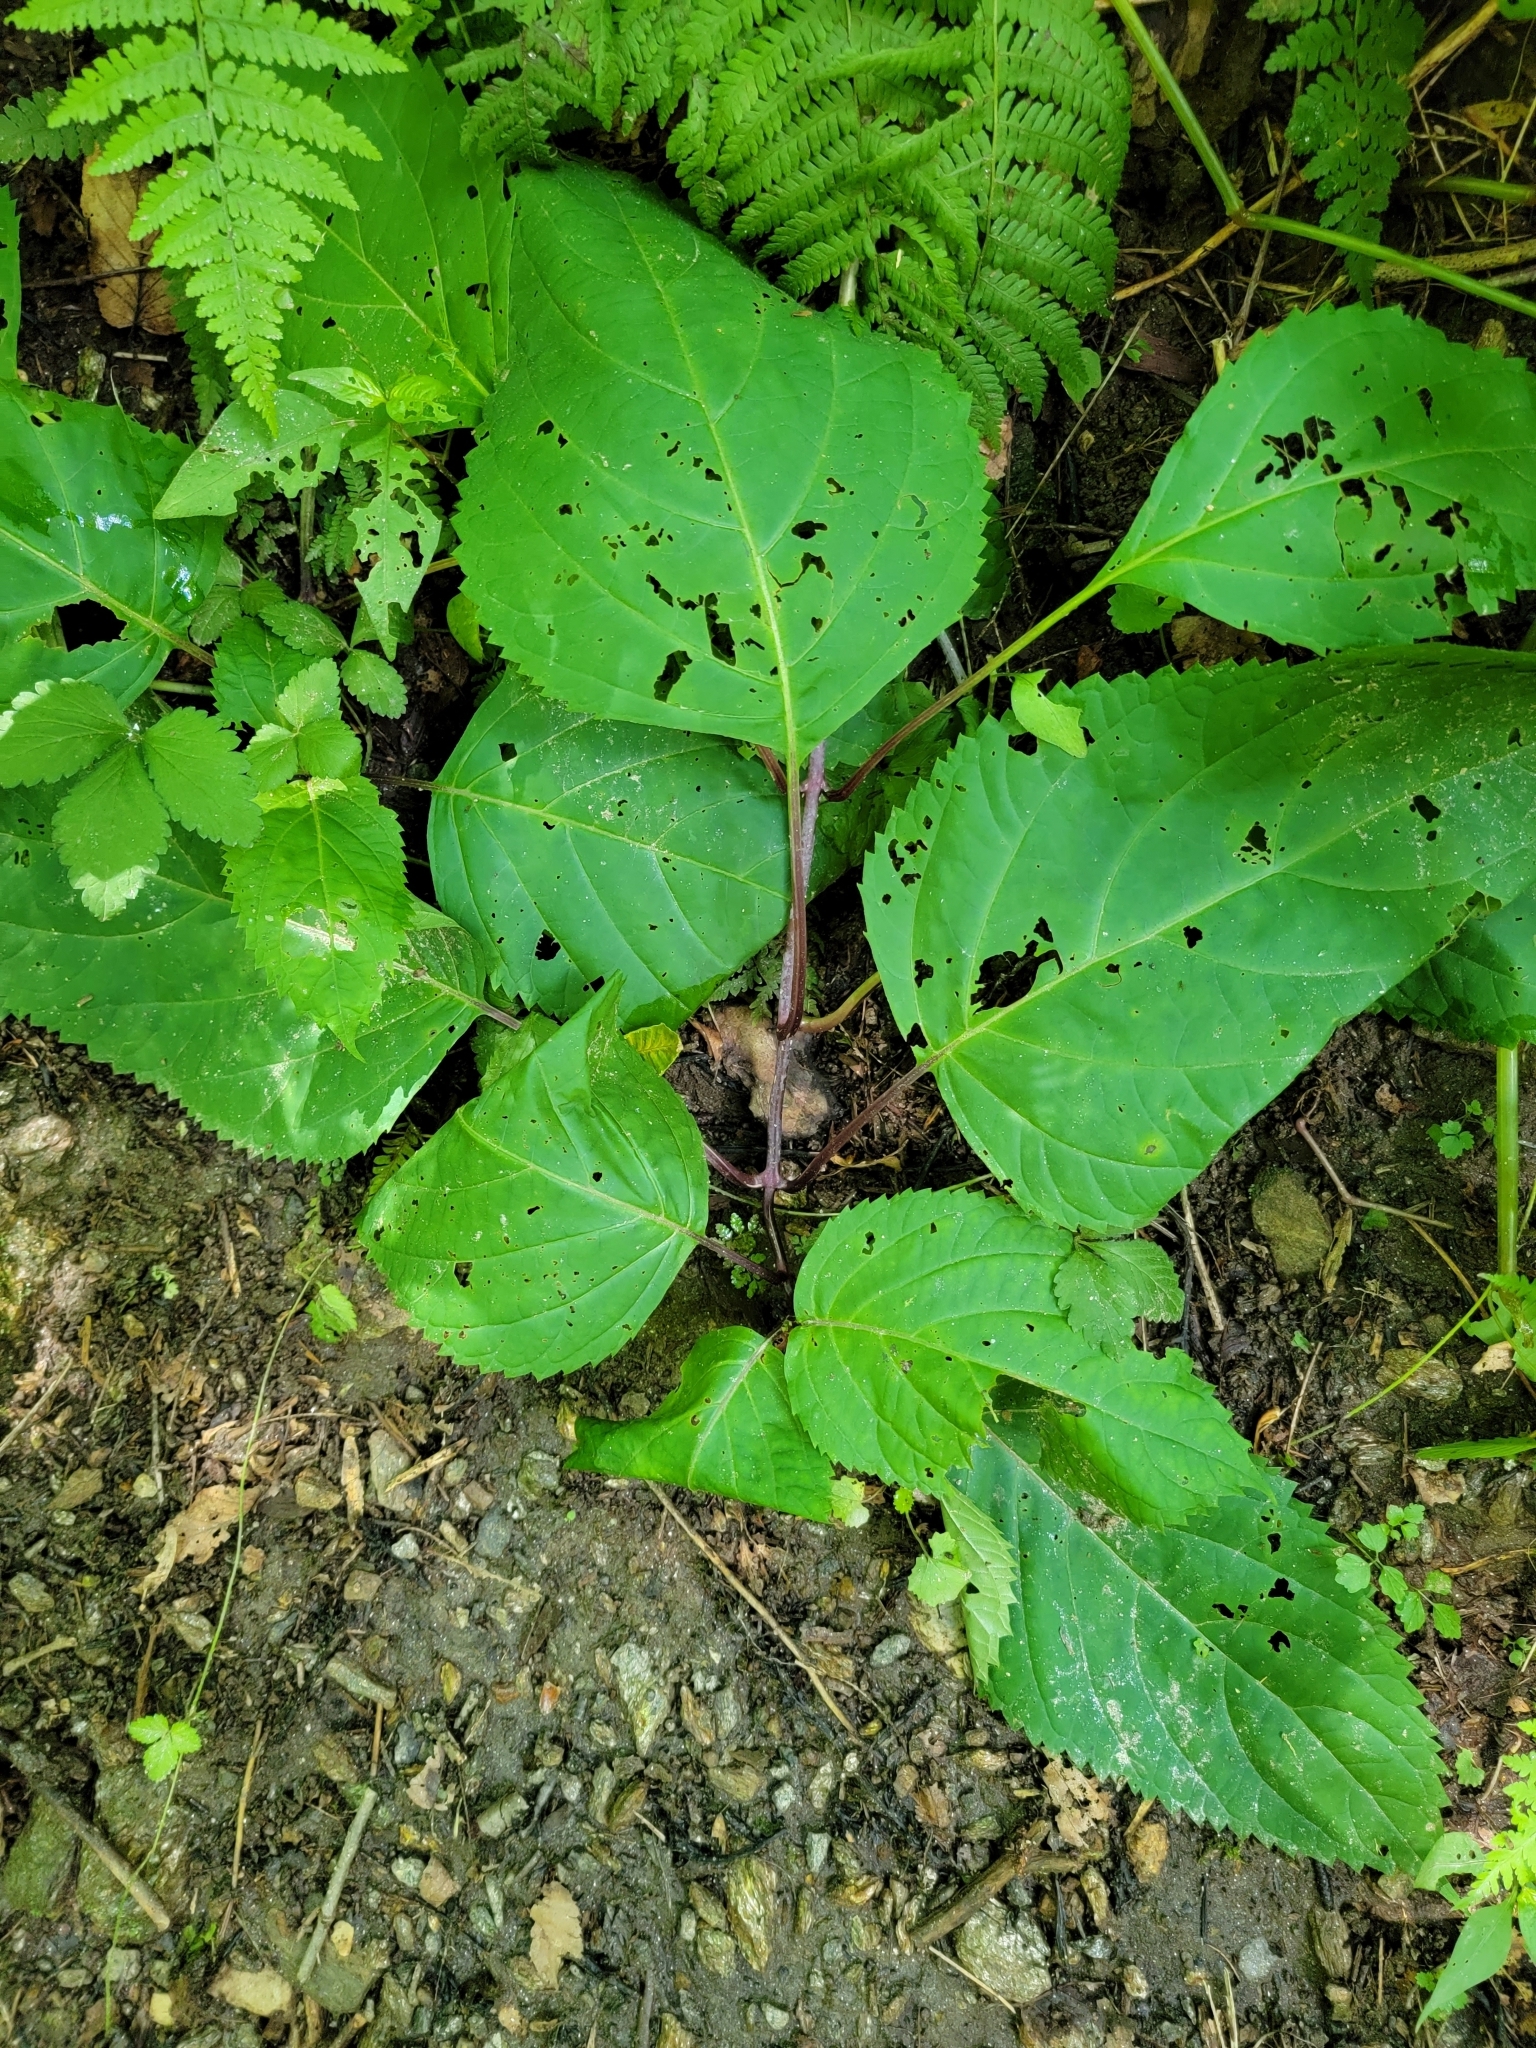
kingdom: Plantae
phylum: Tracheophyta
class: Magnoliopsida
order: Lamiales
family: Lamiaceae
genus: Collinsonia
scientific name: Collinsonia canadensis
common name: Northern horsebalm
